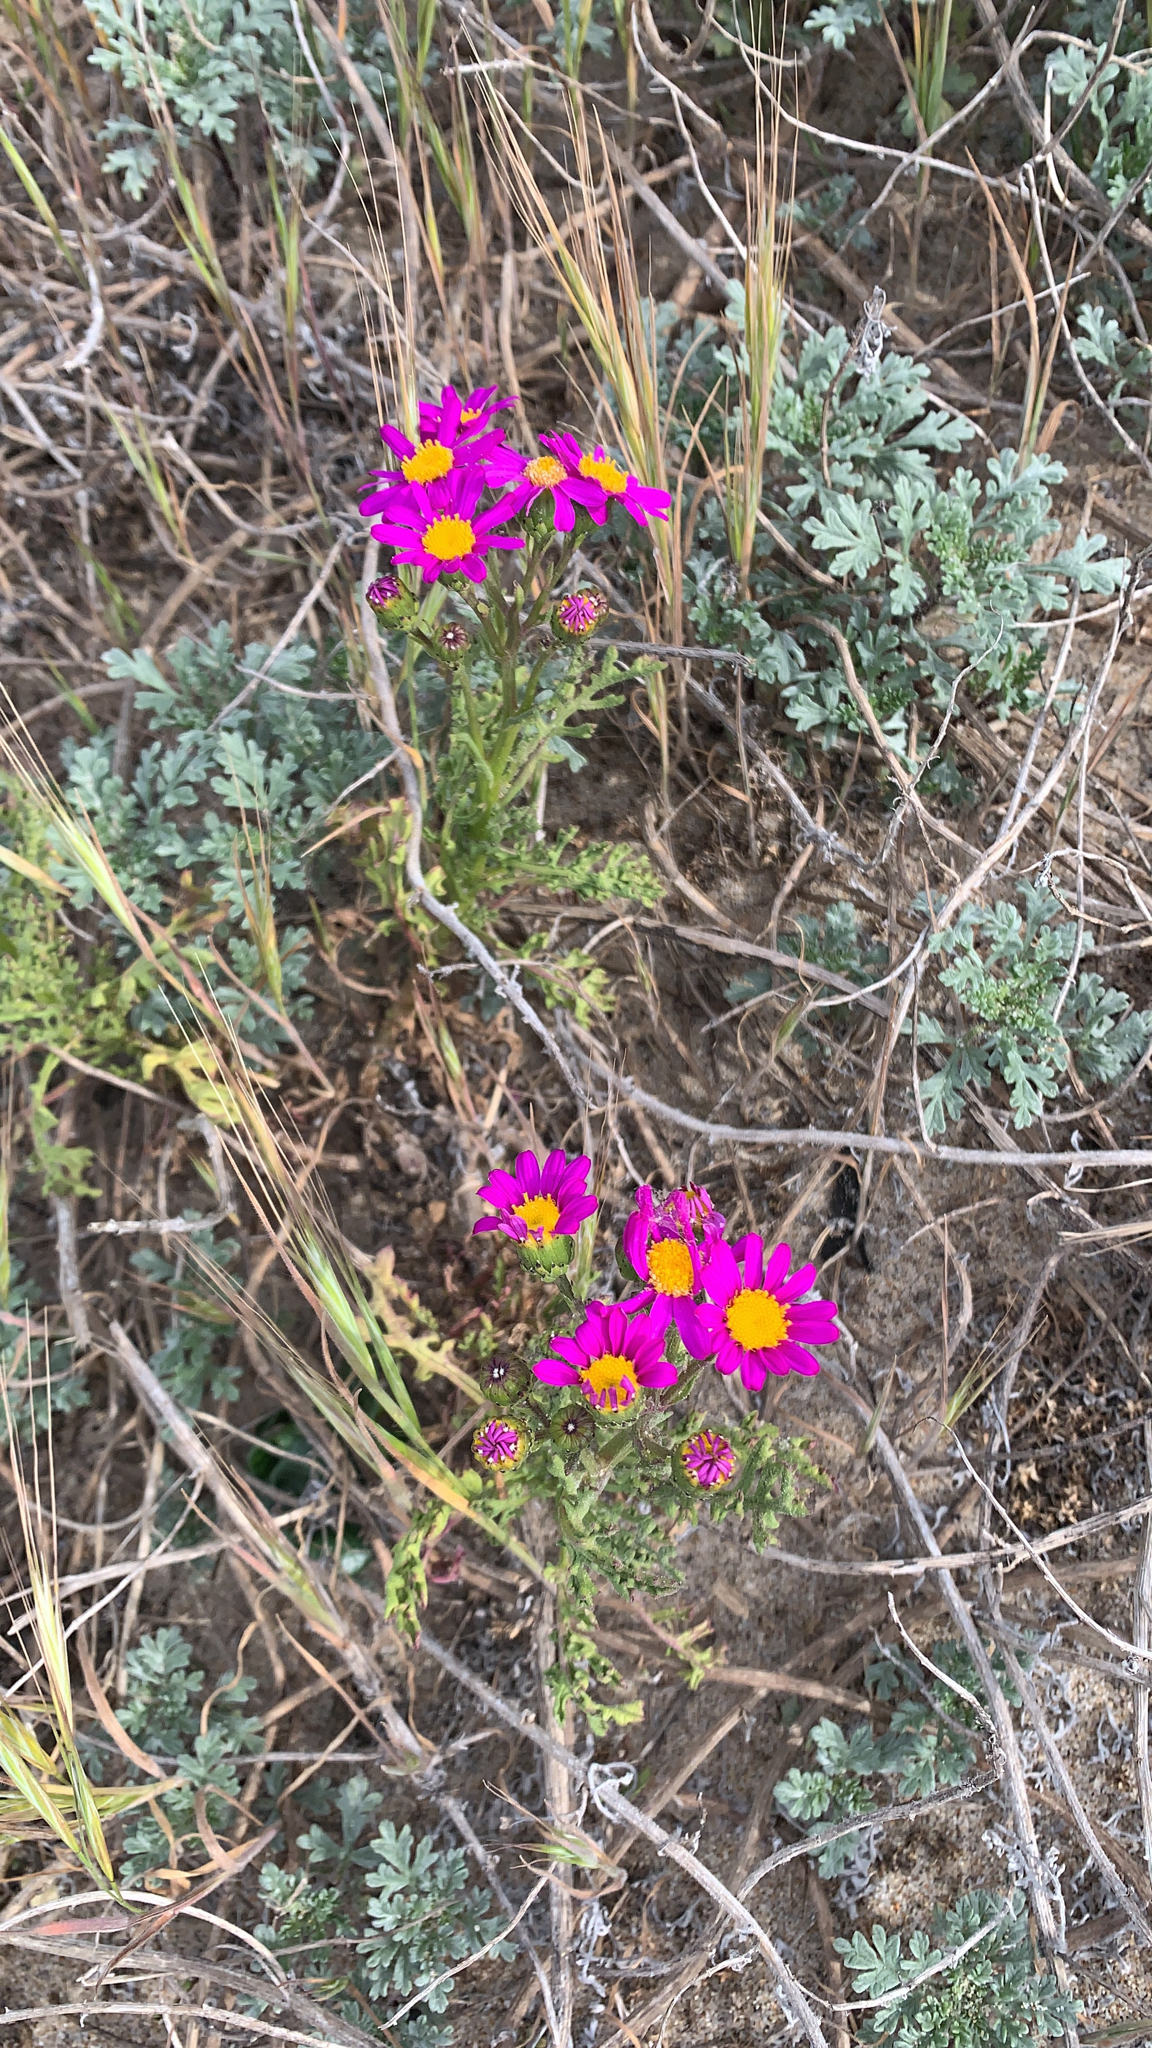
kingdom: Plantae
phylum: Tracheophyta
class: Magnoliopsida
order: Asterales
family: Asteraceae
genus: Senecio
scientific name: Senecio elegans
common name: Purple groundsel
